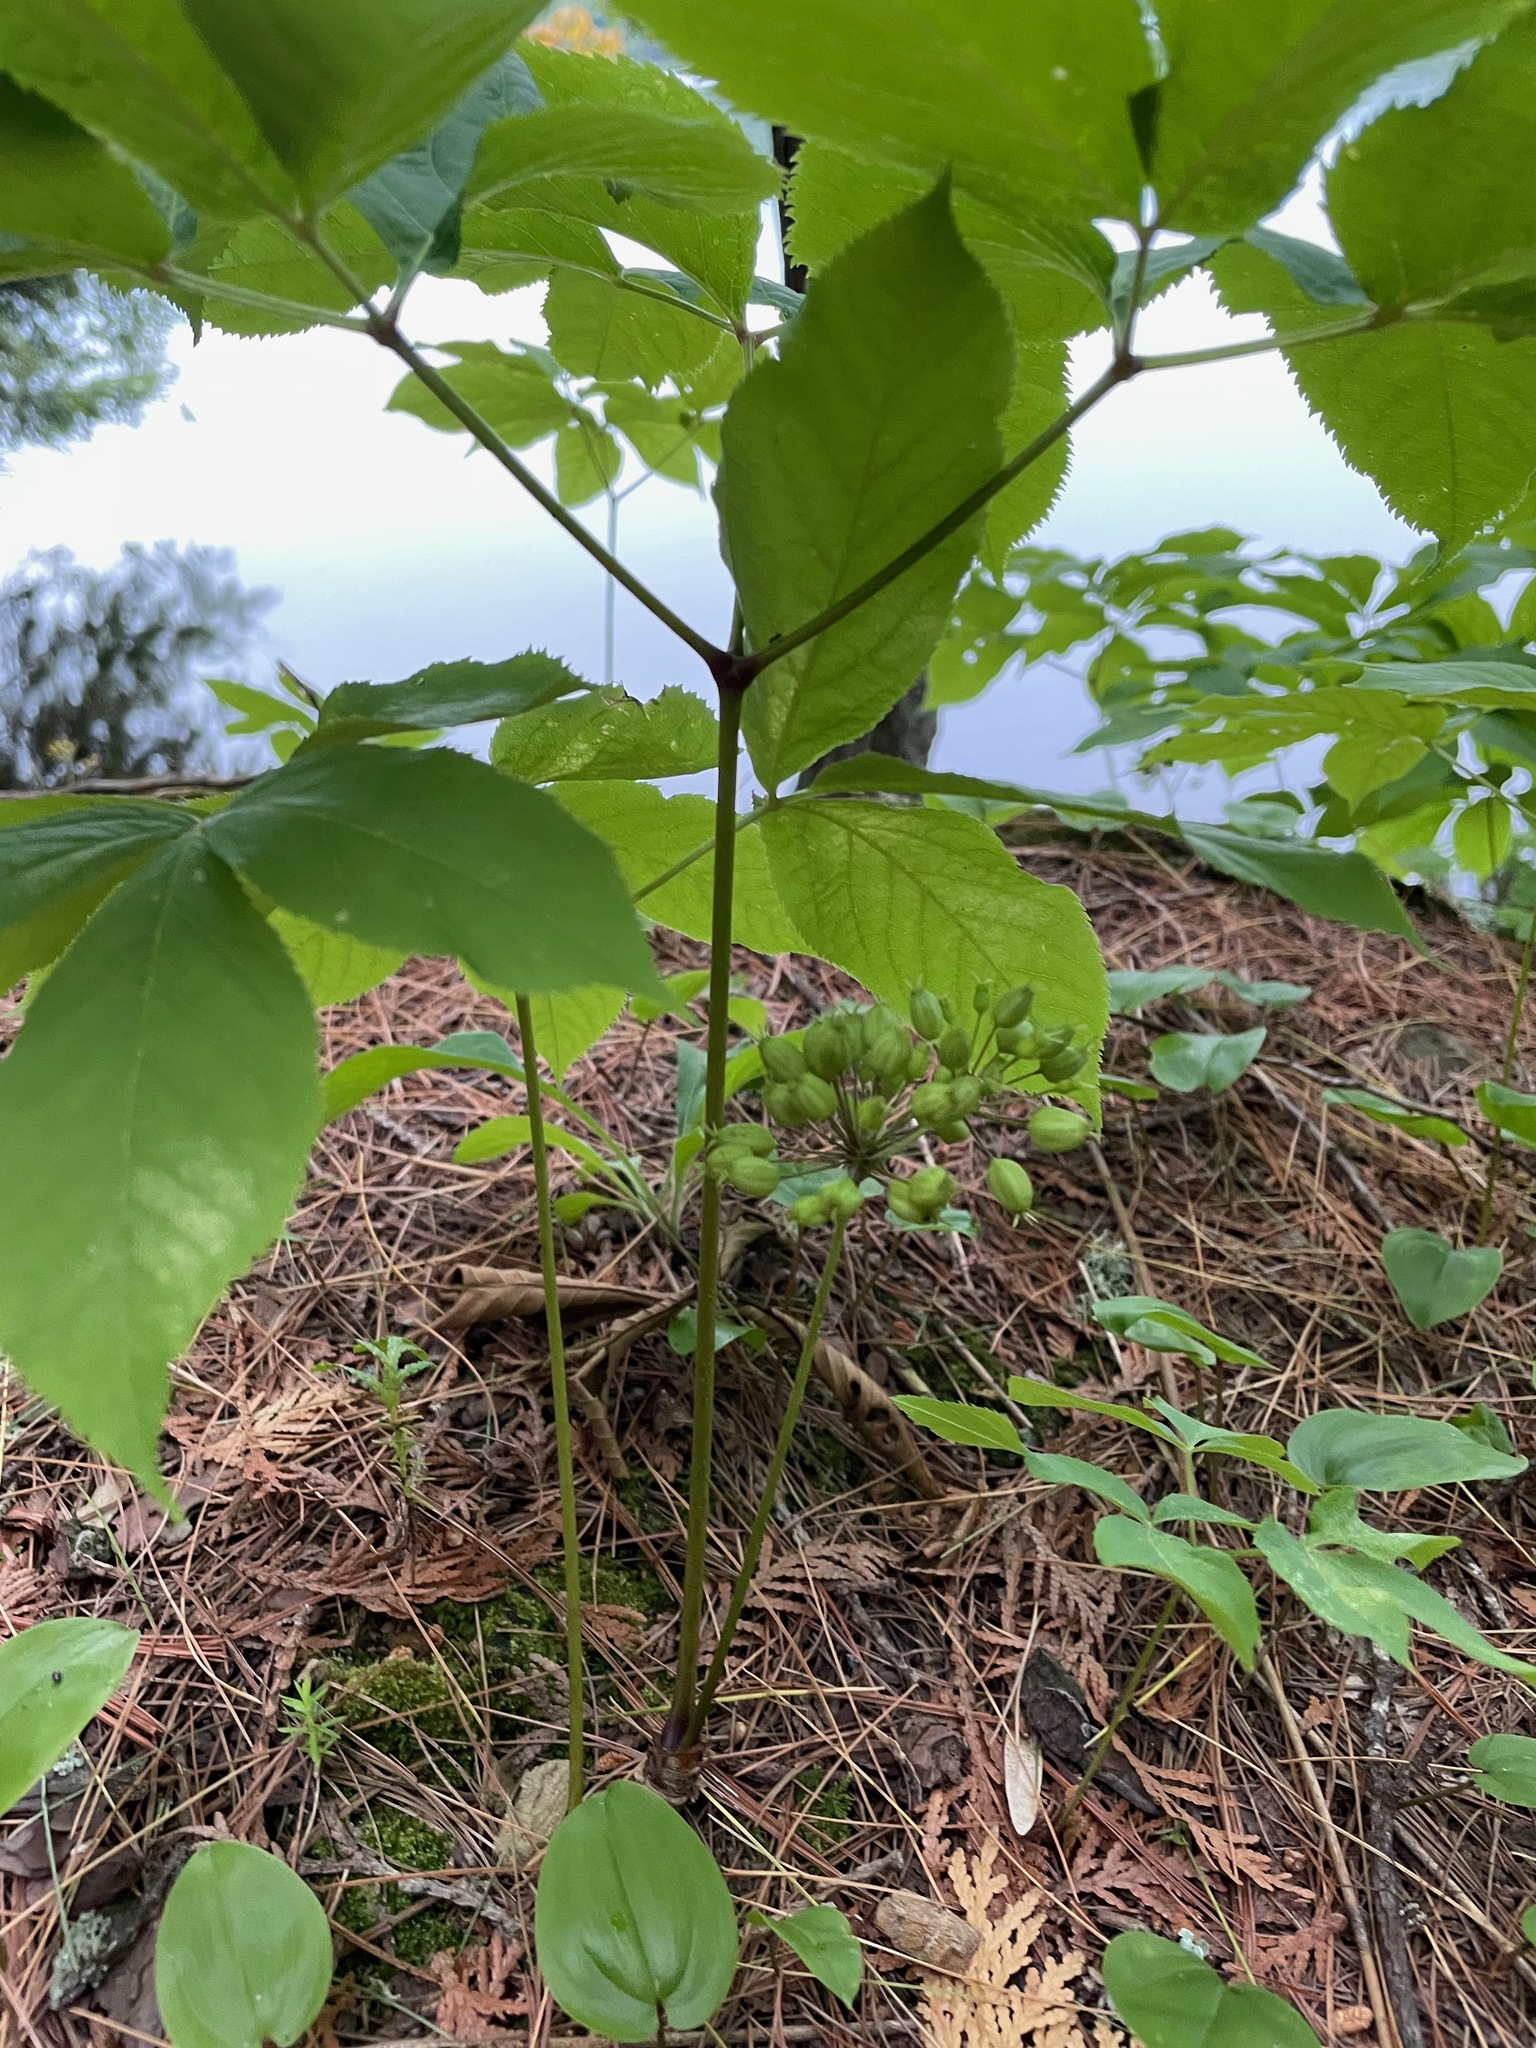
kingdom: Plantae
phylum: Tracheophyta
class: Magnoliopsida
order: Apiales
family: Araliaceae
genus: Aralia
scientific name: Aralia nudicaulis
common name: Wild sarsaparilla
